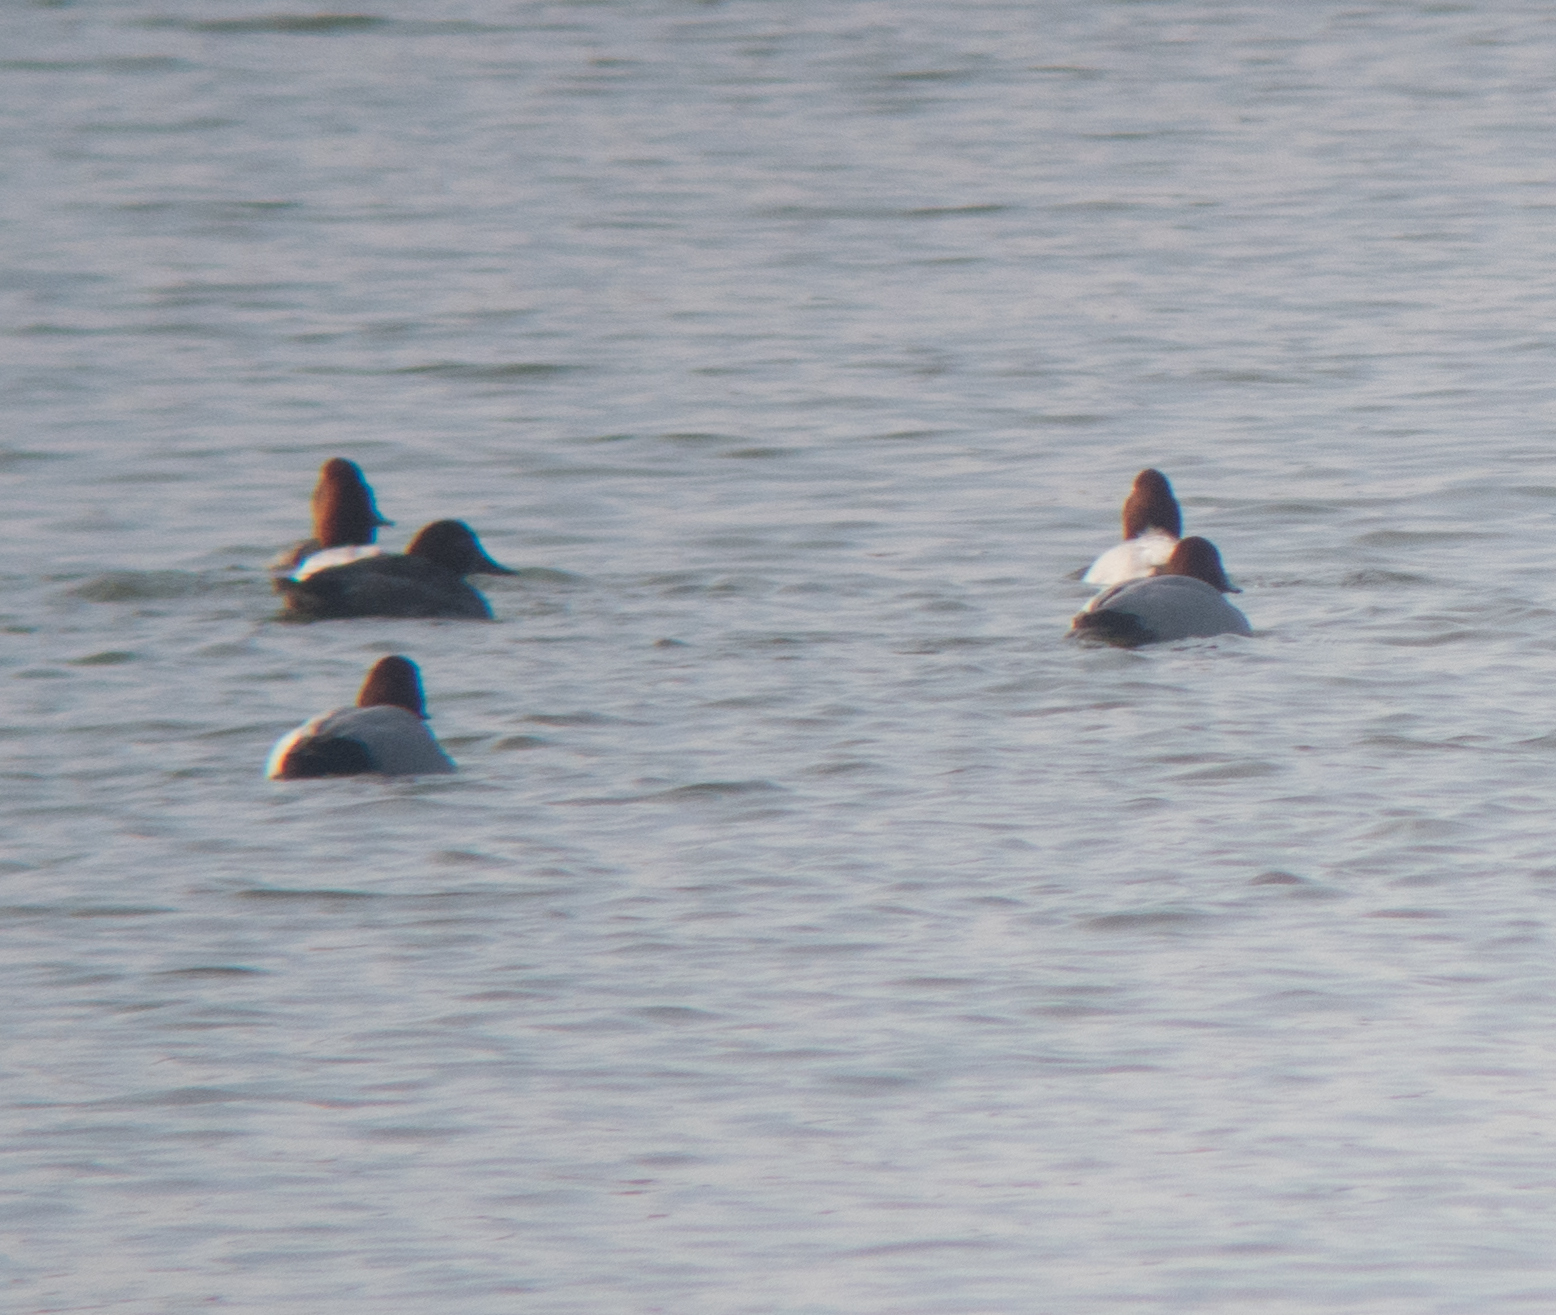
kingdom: Animalia
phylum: Chordata
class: Aves
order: Anseriformes
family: Anatidae
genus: Aythya
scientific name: Aythya ferina
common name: Common pochard
